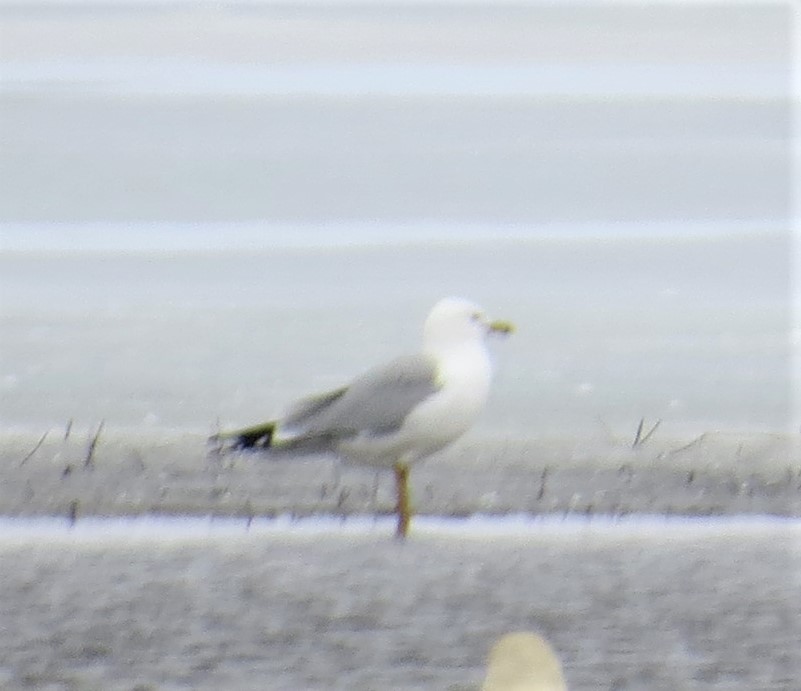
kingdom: Animalia
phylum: Chordata
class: Aves
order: Charadriiformes
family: Laridae
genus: Larus
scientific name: Larus delawarensis
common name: Ring-billed gull
